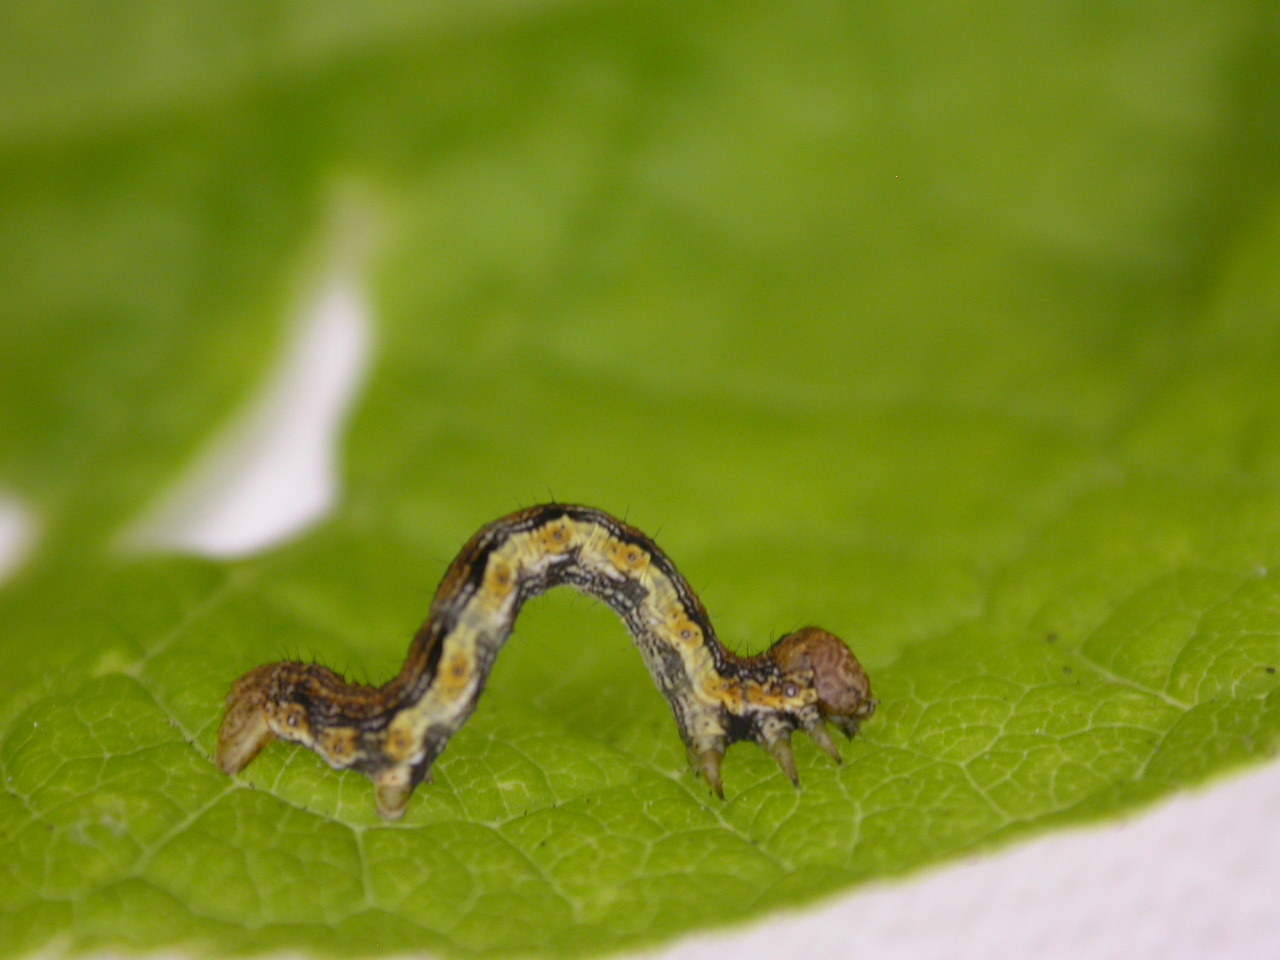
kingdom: Animalia
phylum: Arthropoda
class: Insecta
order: Lepidoptera
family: Geometridae
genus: Erannis
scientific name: Erannis defoliaria
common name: Mottled umber
